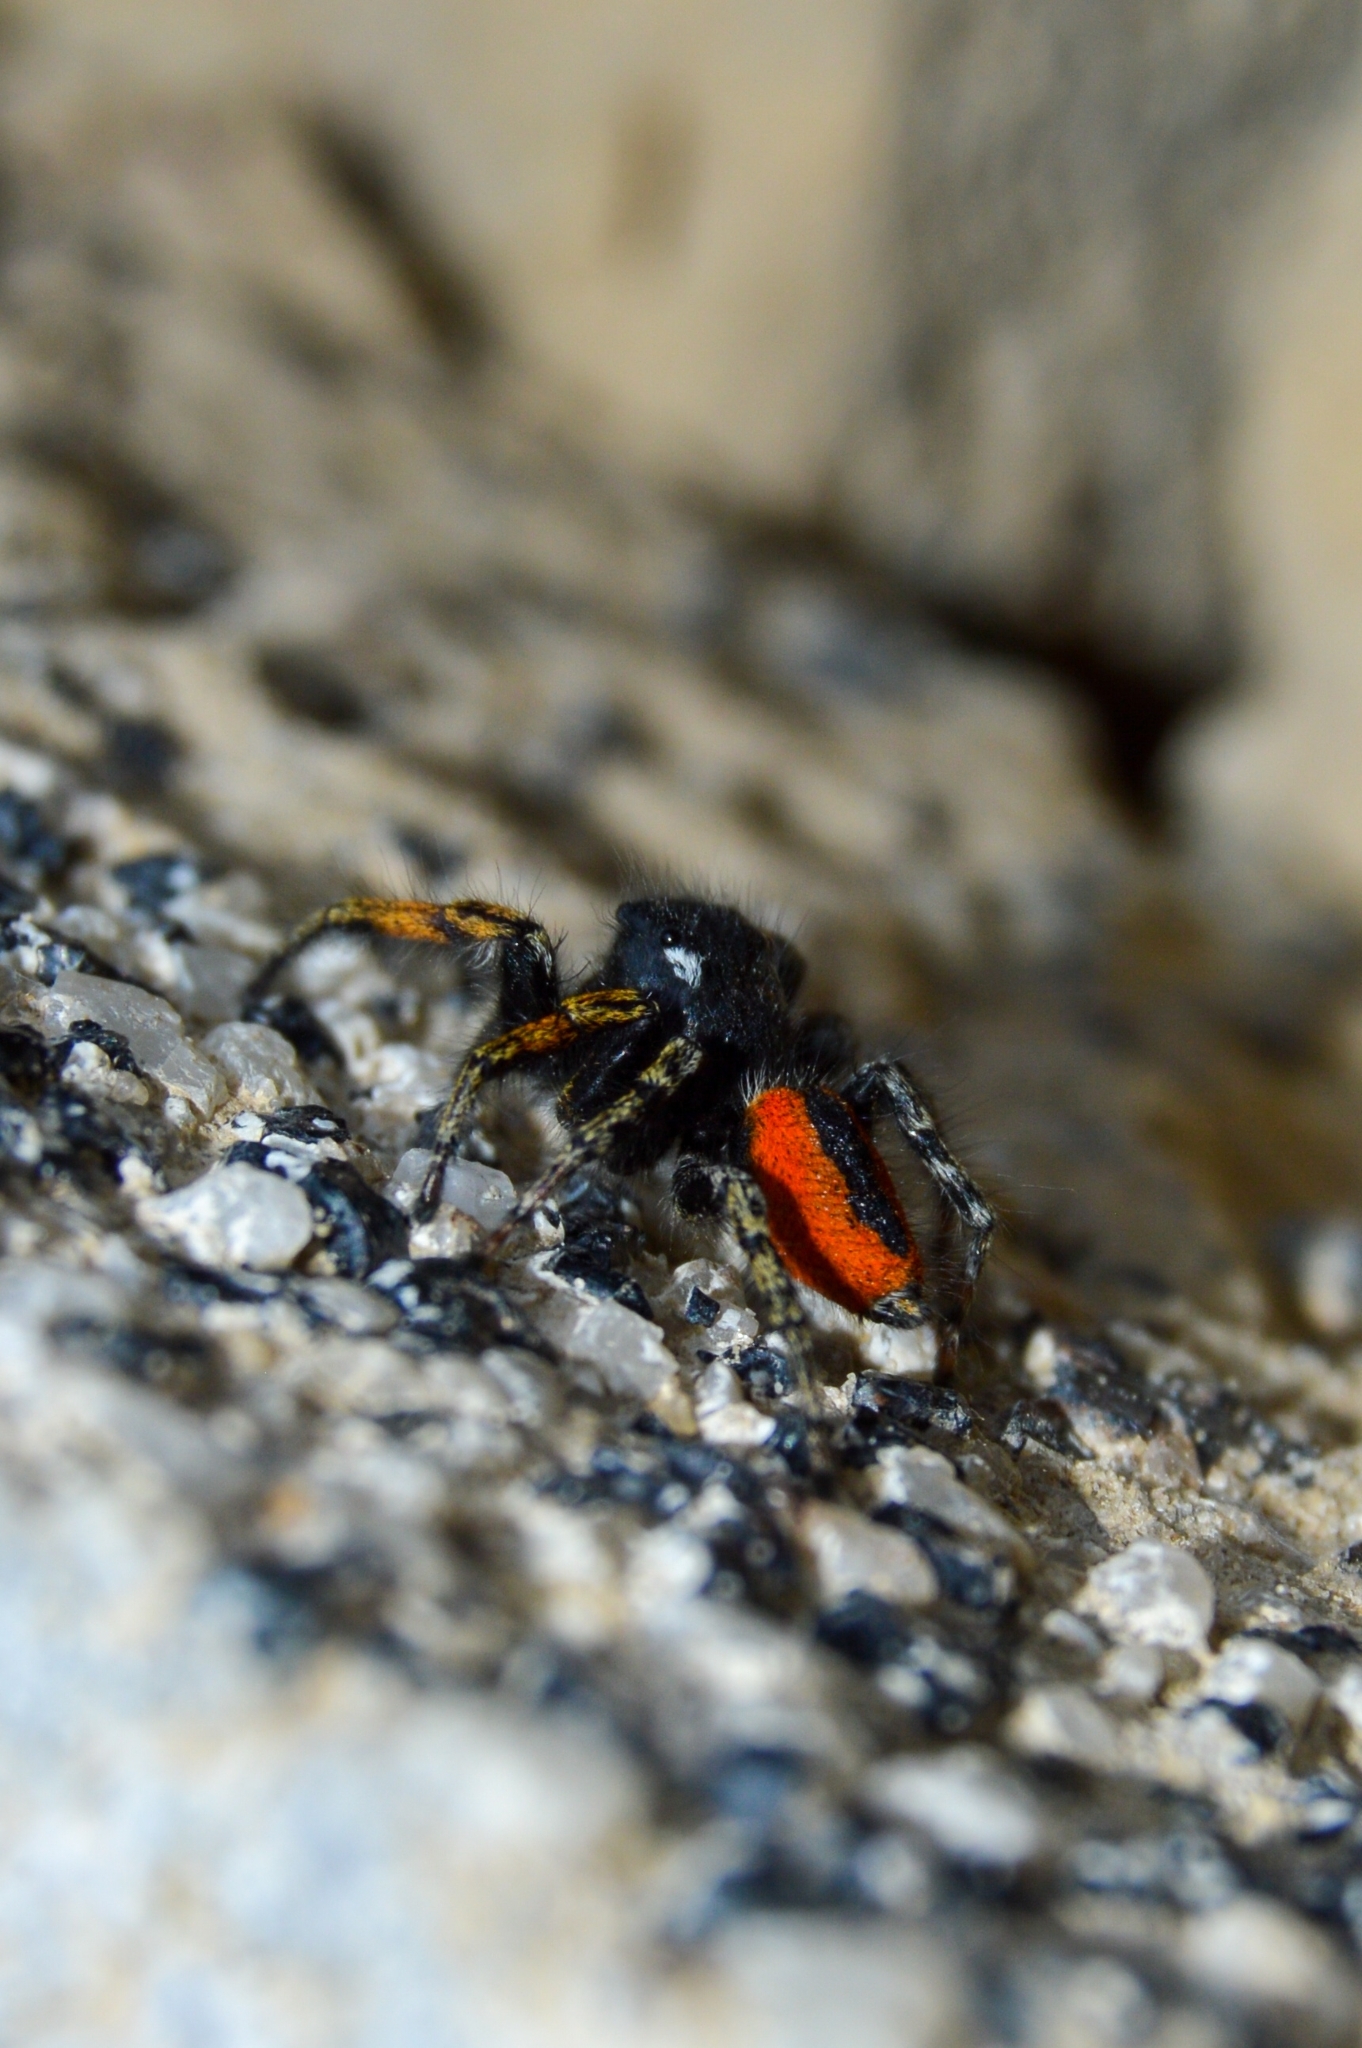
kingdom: Animalia
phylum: Arthropoda
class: Arachnida
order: Araneae
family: Salticidae
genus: Philaeus
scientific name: Philaeus chrysops
